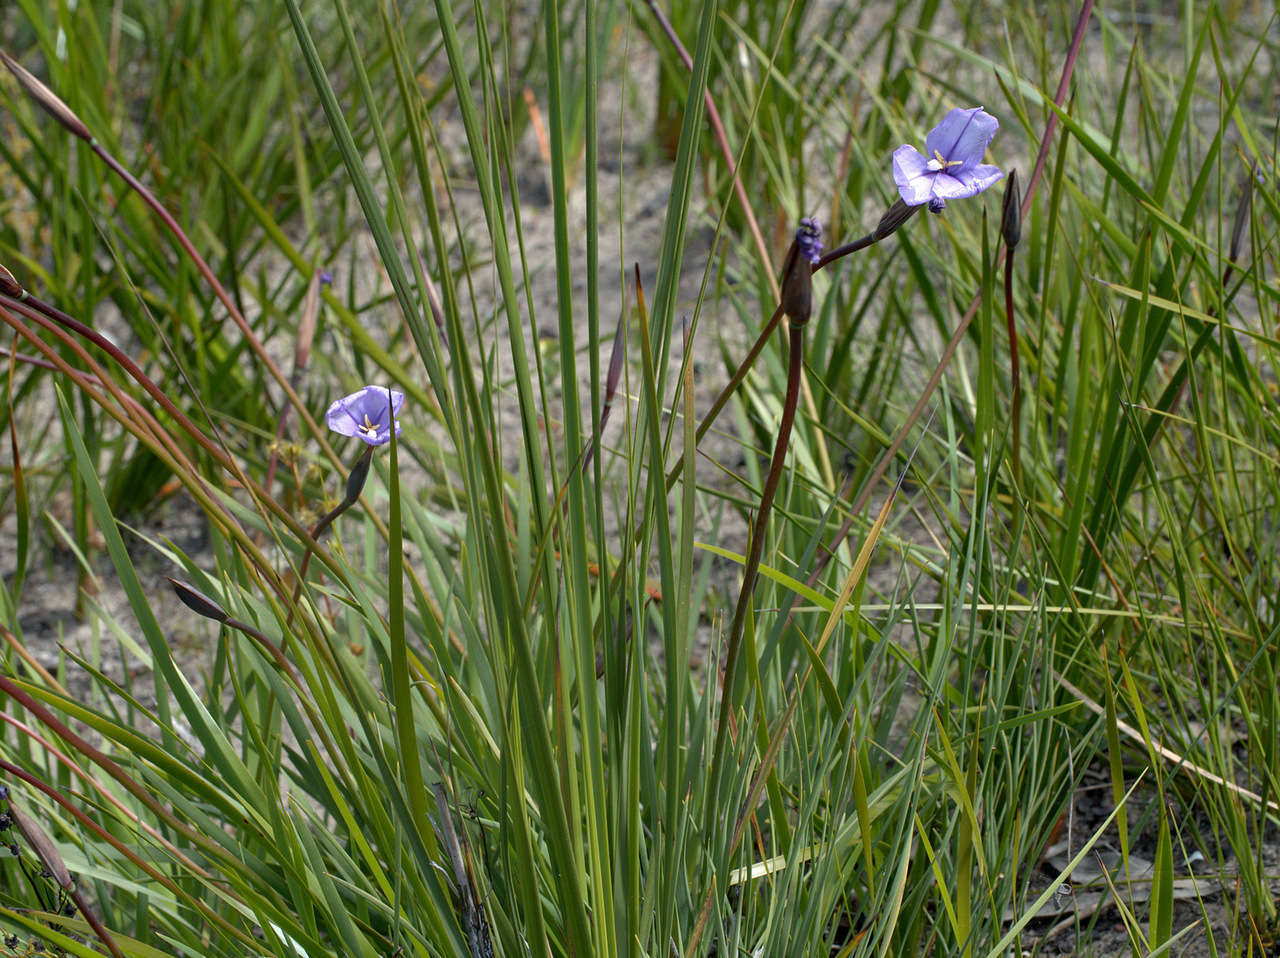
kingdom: Plantae
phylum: Tracheophyta
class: Liliopsida
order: Asparagales
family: Iridaceae
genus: Patersonia
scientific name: Patersonia occidentalis
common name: Long purple-flag
